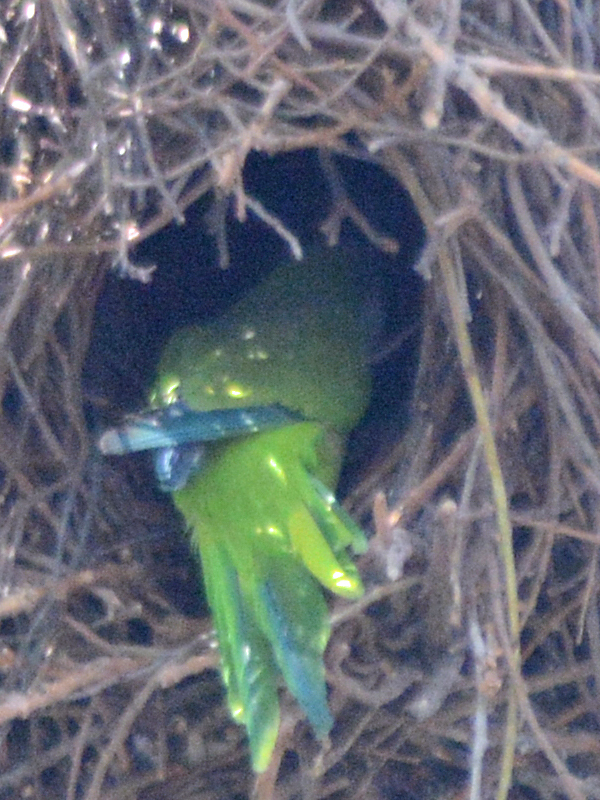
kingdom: Animalia
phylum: Chordata
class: Aves
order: Psittaciformes
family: Psittacidae
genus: Myiopsitta
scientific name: Myiopsitta monachus
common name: Monk parakeet
